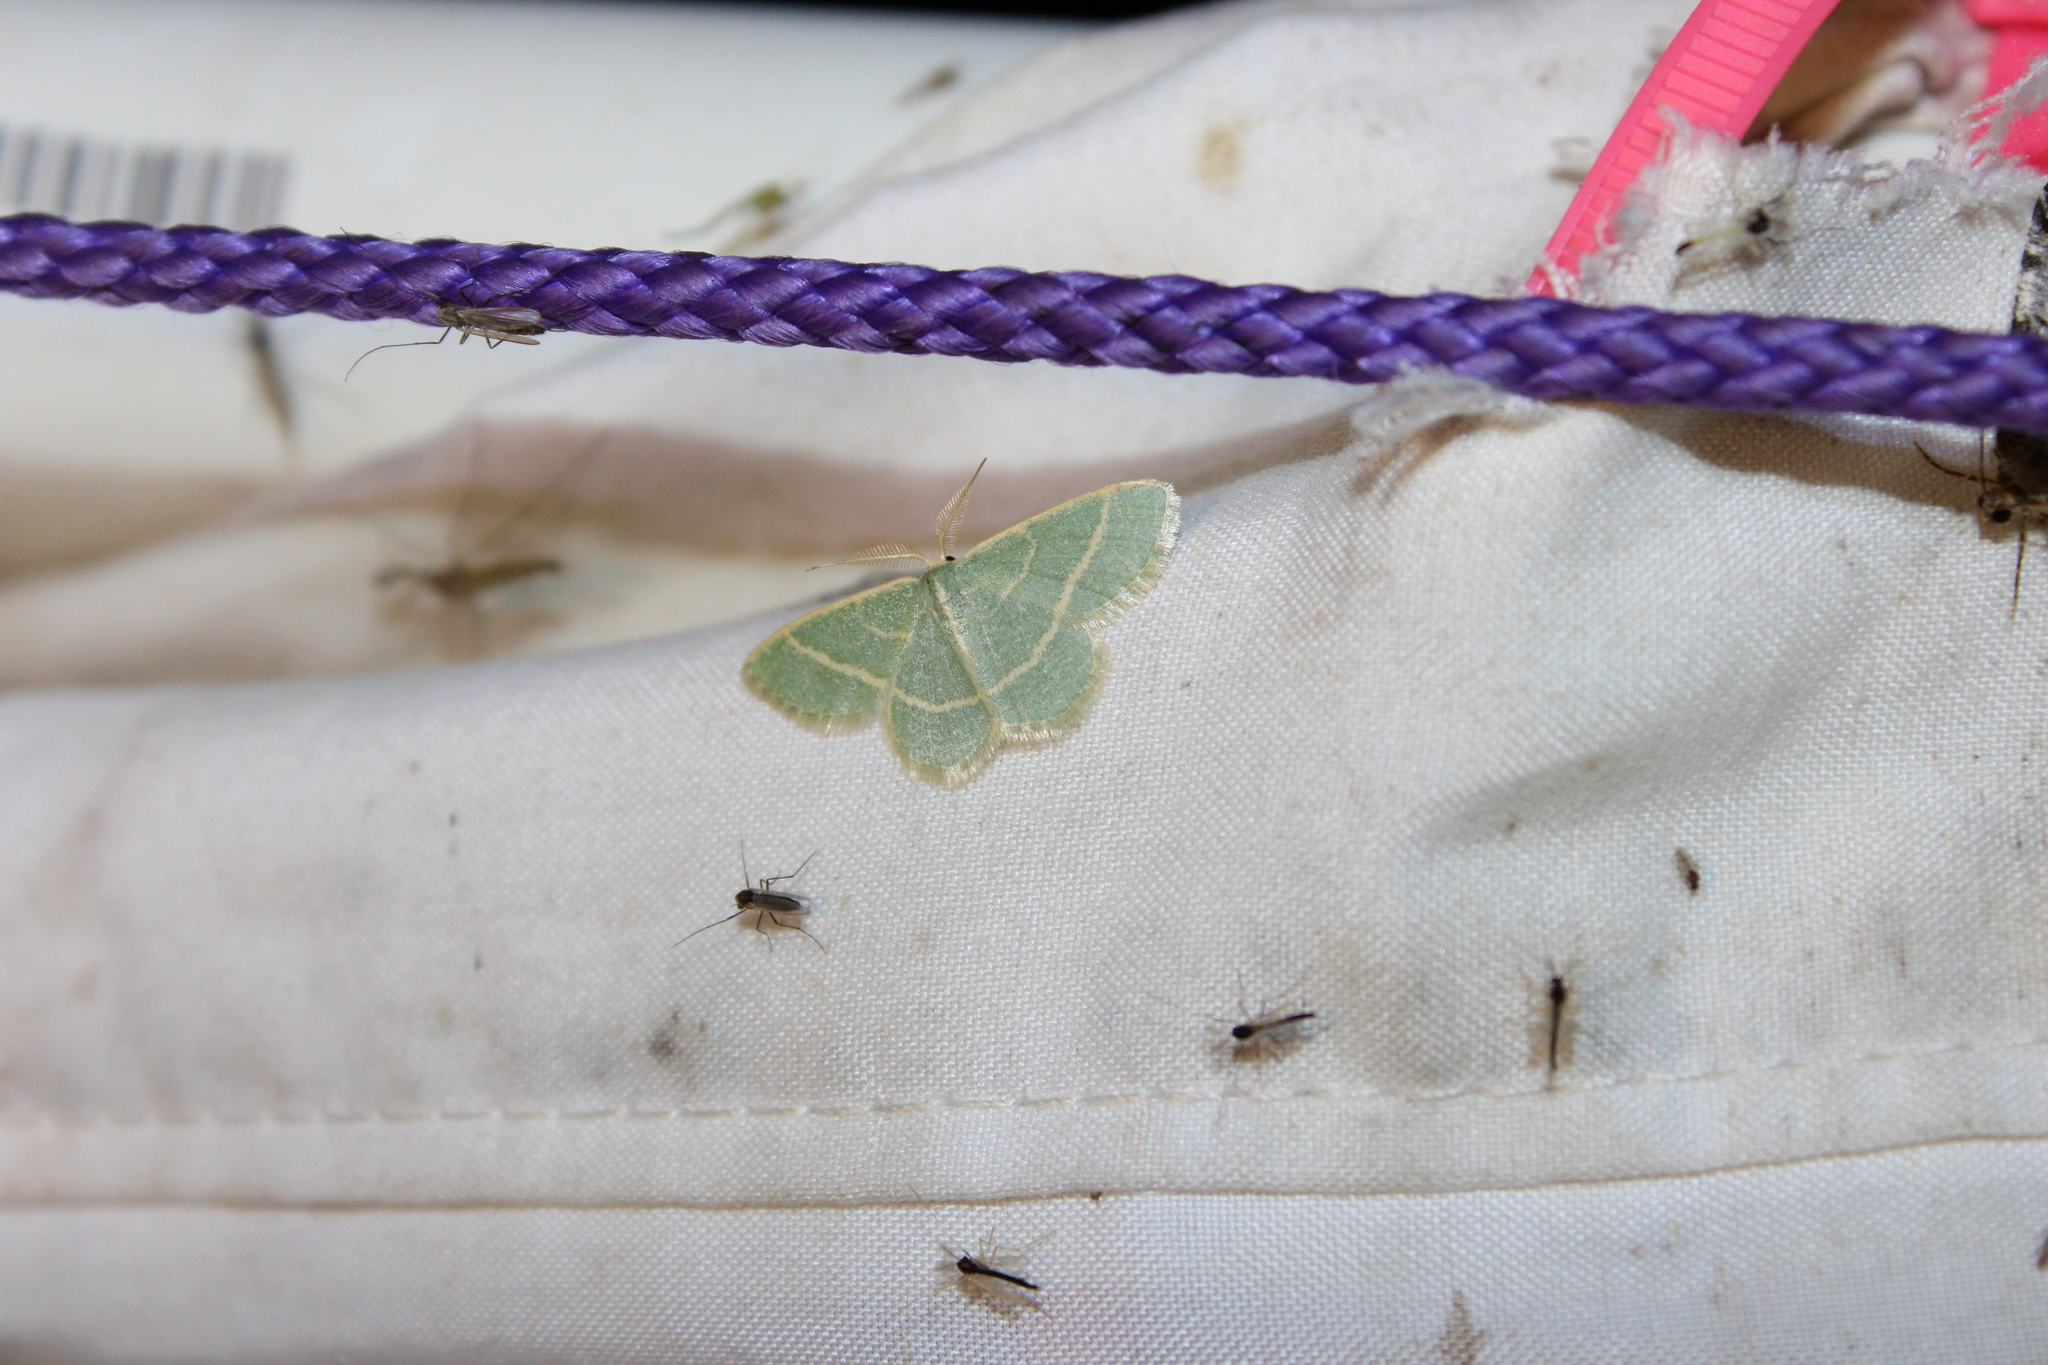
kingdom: Animalia
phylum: Arthropoda
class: Insecta
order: Lepidoptera
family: Geometridae
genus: Chlorochlamys
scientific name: Chlorochlamys chloroleucaria
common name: Blackberry looper
